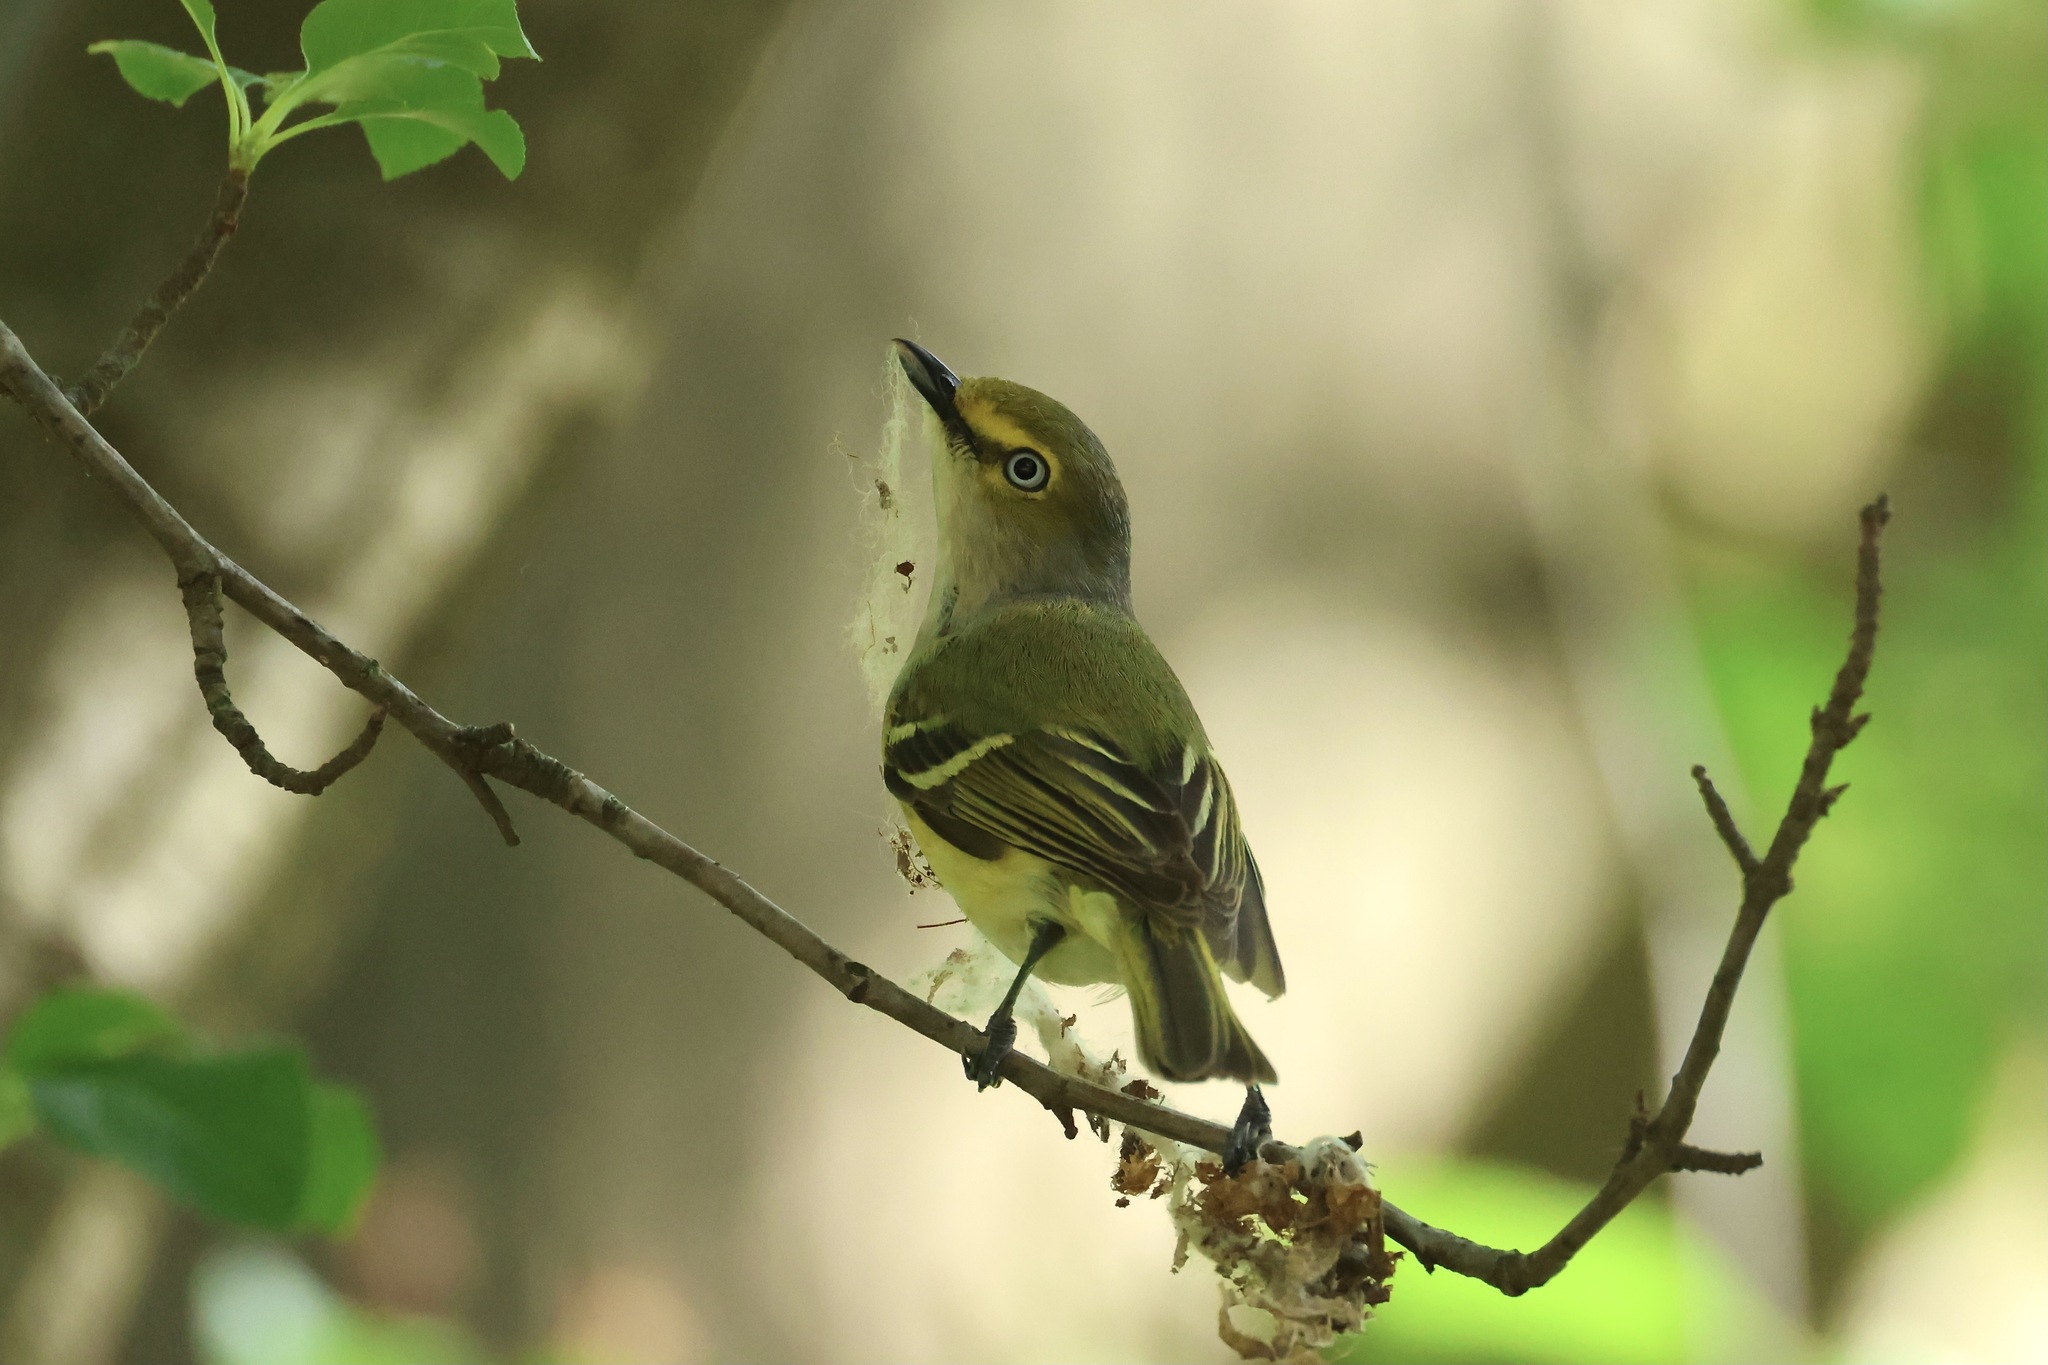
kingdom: Animalia
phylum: Chordata
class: Aves
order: Passeriformes
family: Vireonidae
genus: Vireo
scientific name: Vireo griseus
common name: White-eyed vireo
